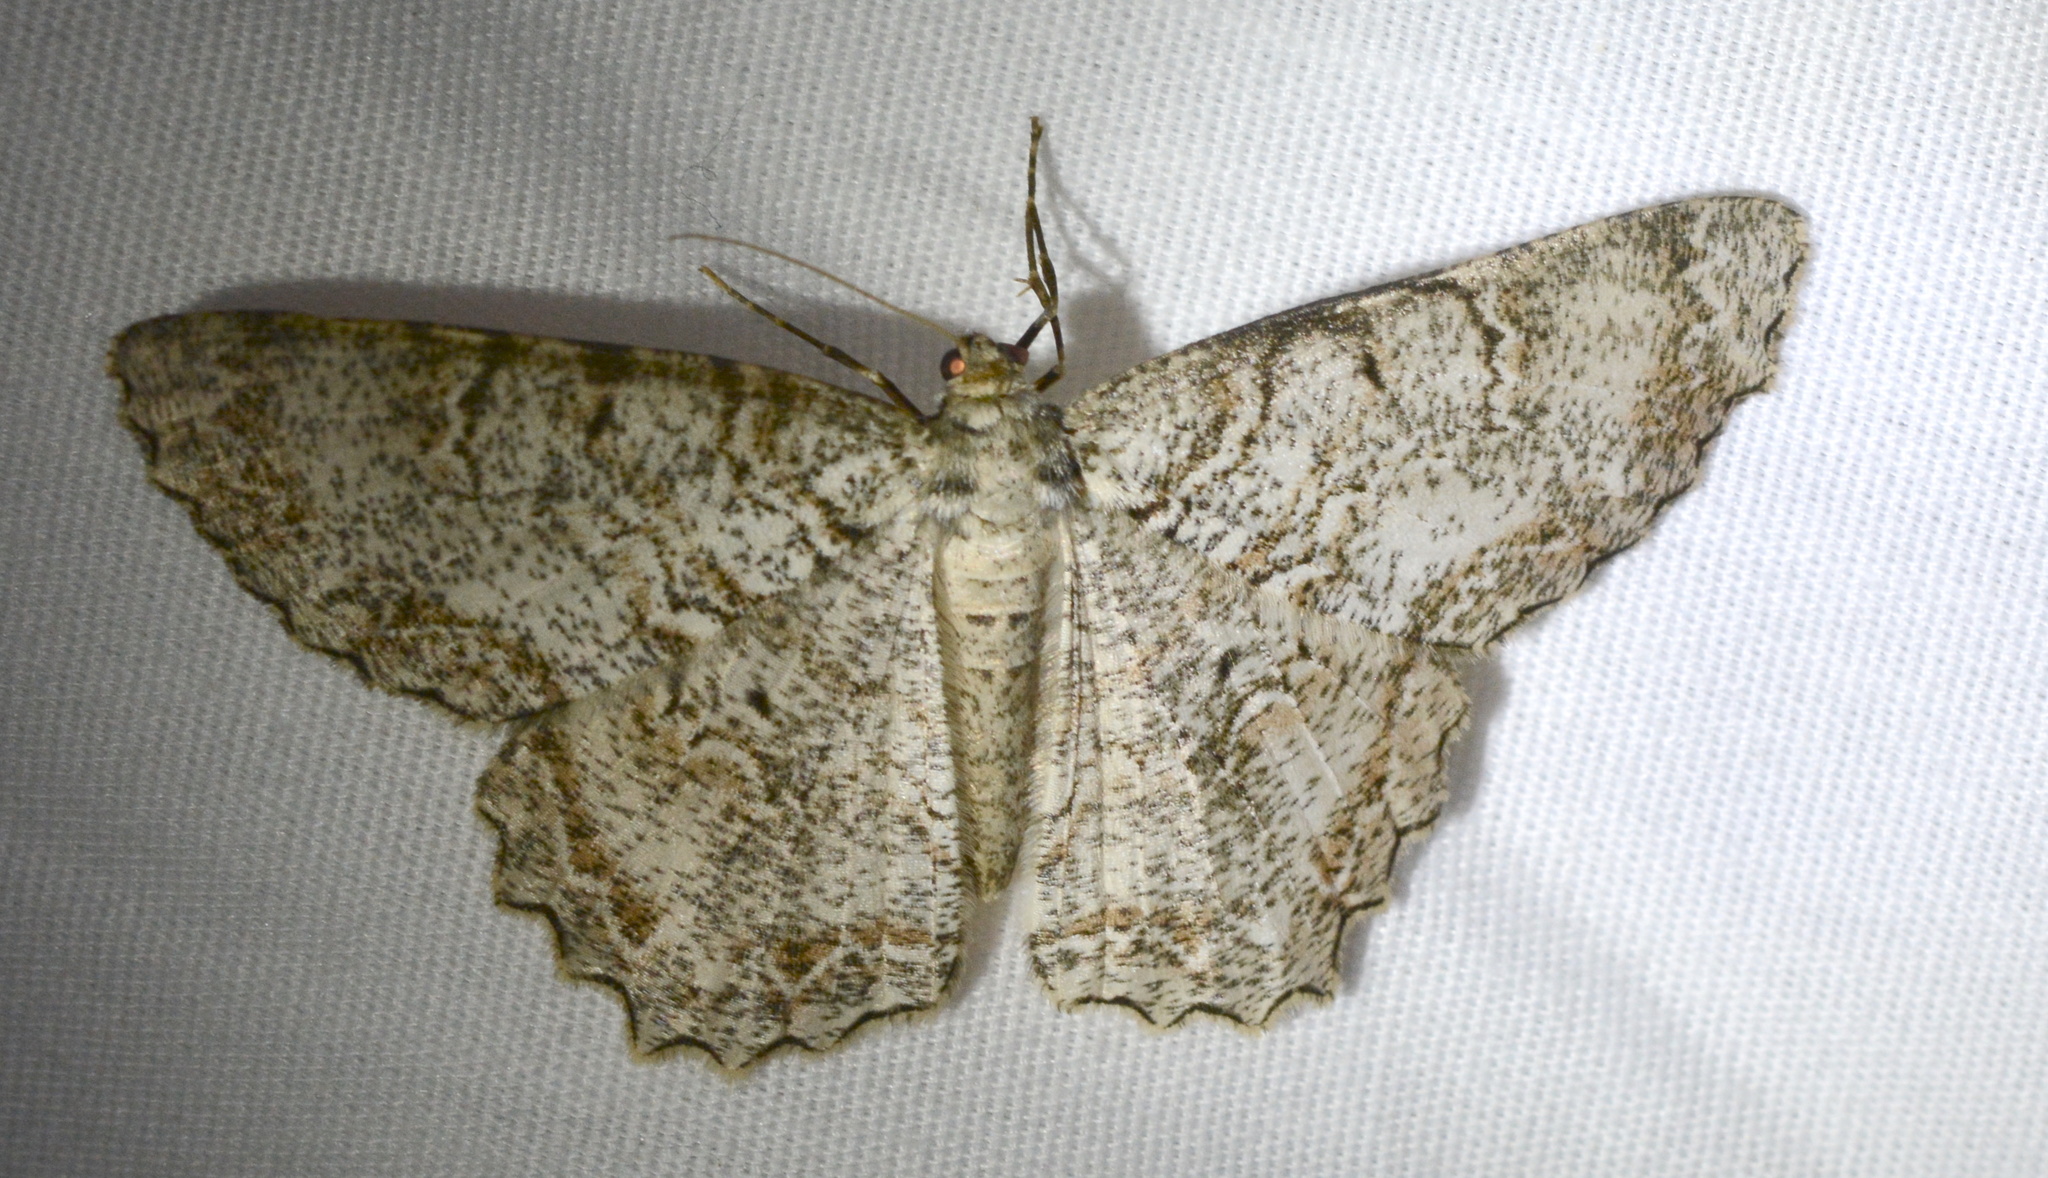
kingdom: Animalia
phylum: Arthropoda
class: Insecta
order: Lepidoptera
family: Geometridae
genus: Epimecis
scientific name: Epimecis hortaria
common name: Tulip-tree beauty
